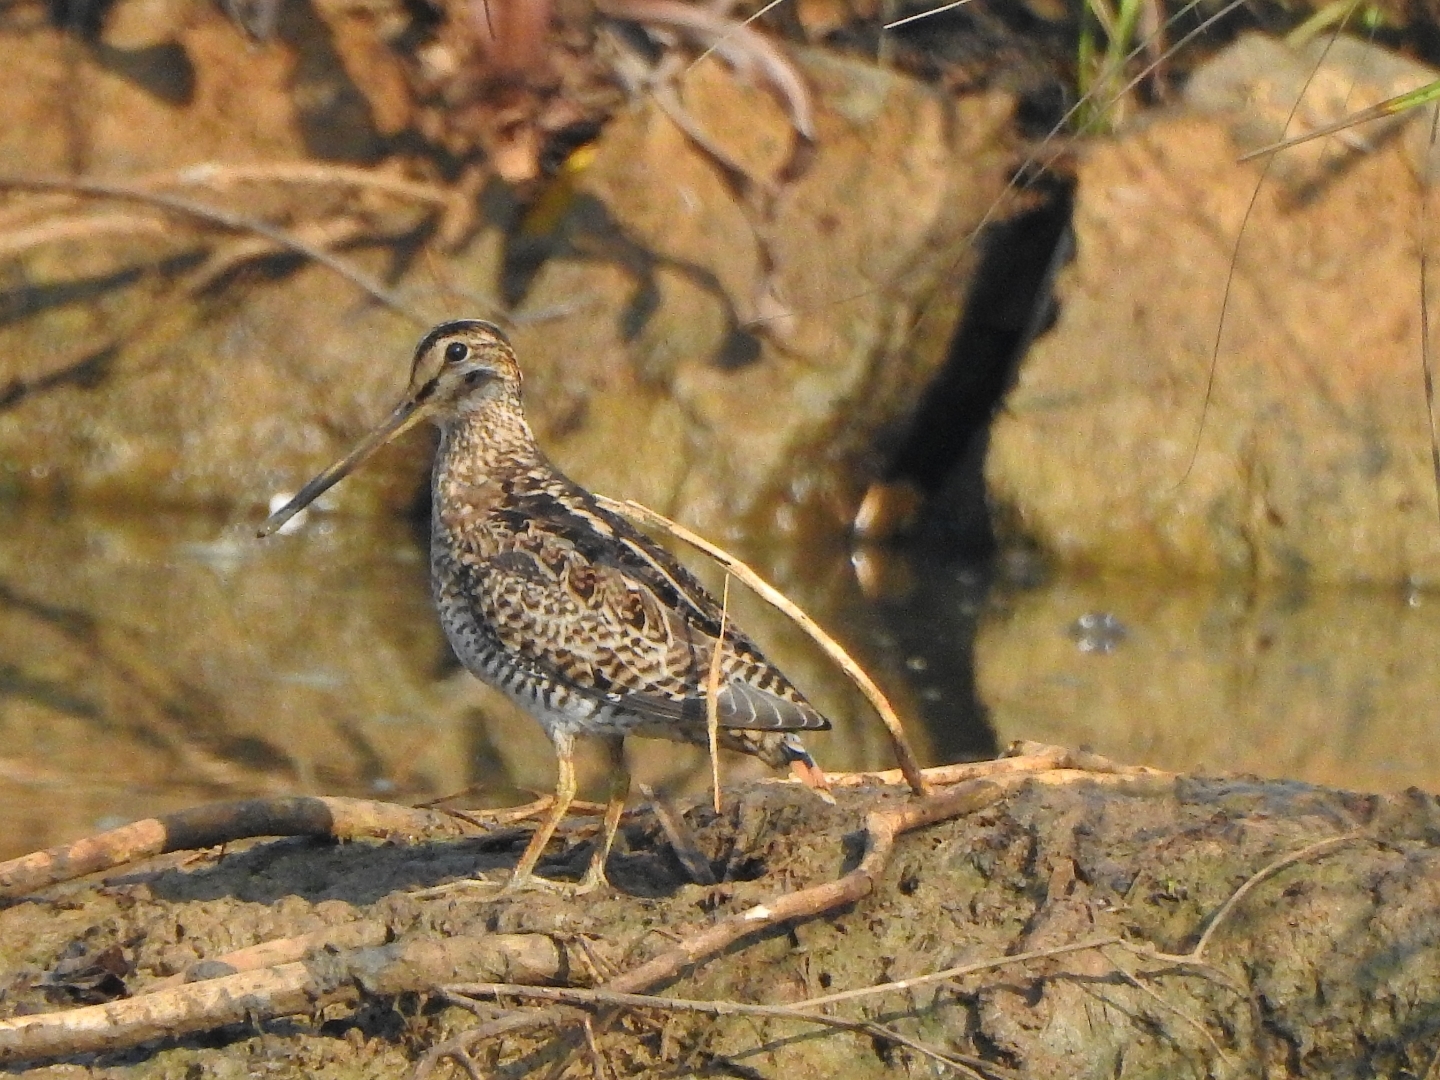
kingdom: Animalia
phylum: Chordata
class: Aves
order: Charadriiformes
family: Scolopacidae
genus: Gallinago
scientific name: Gallinago gallinago
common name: Common snipe
